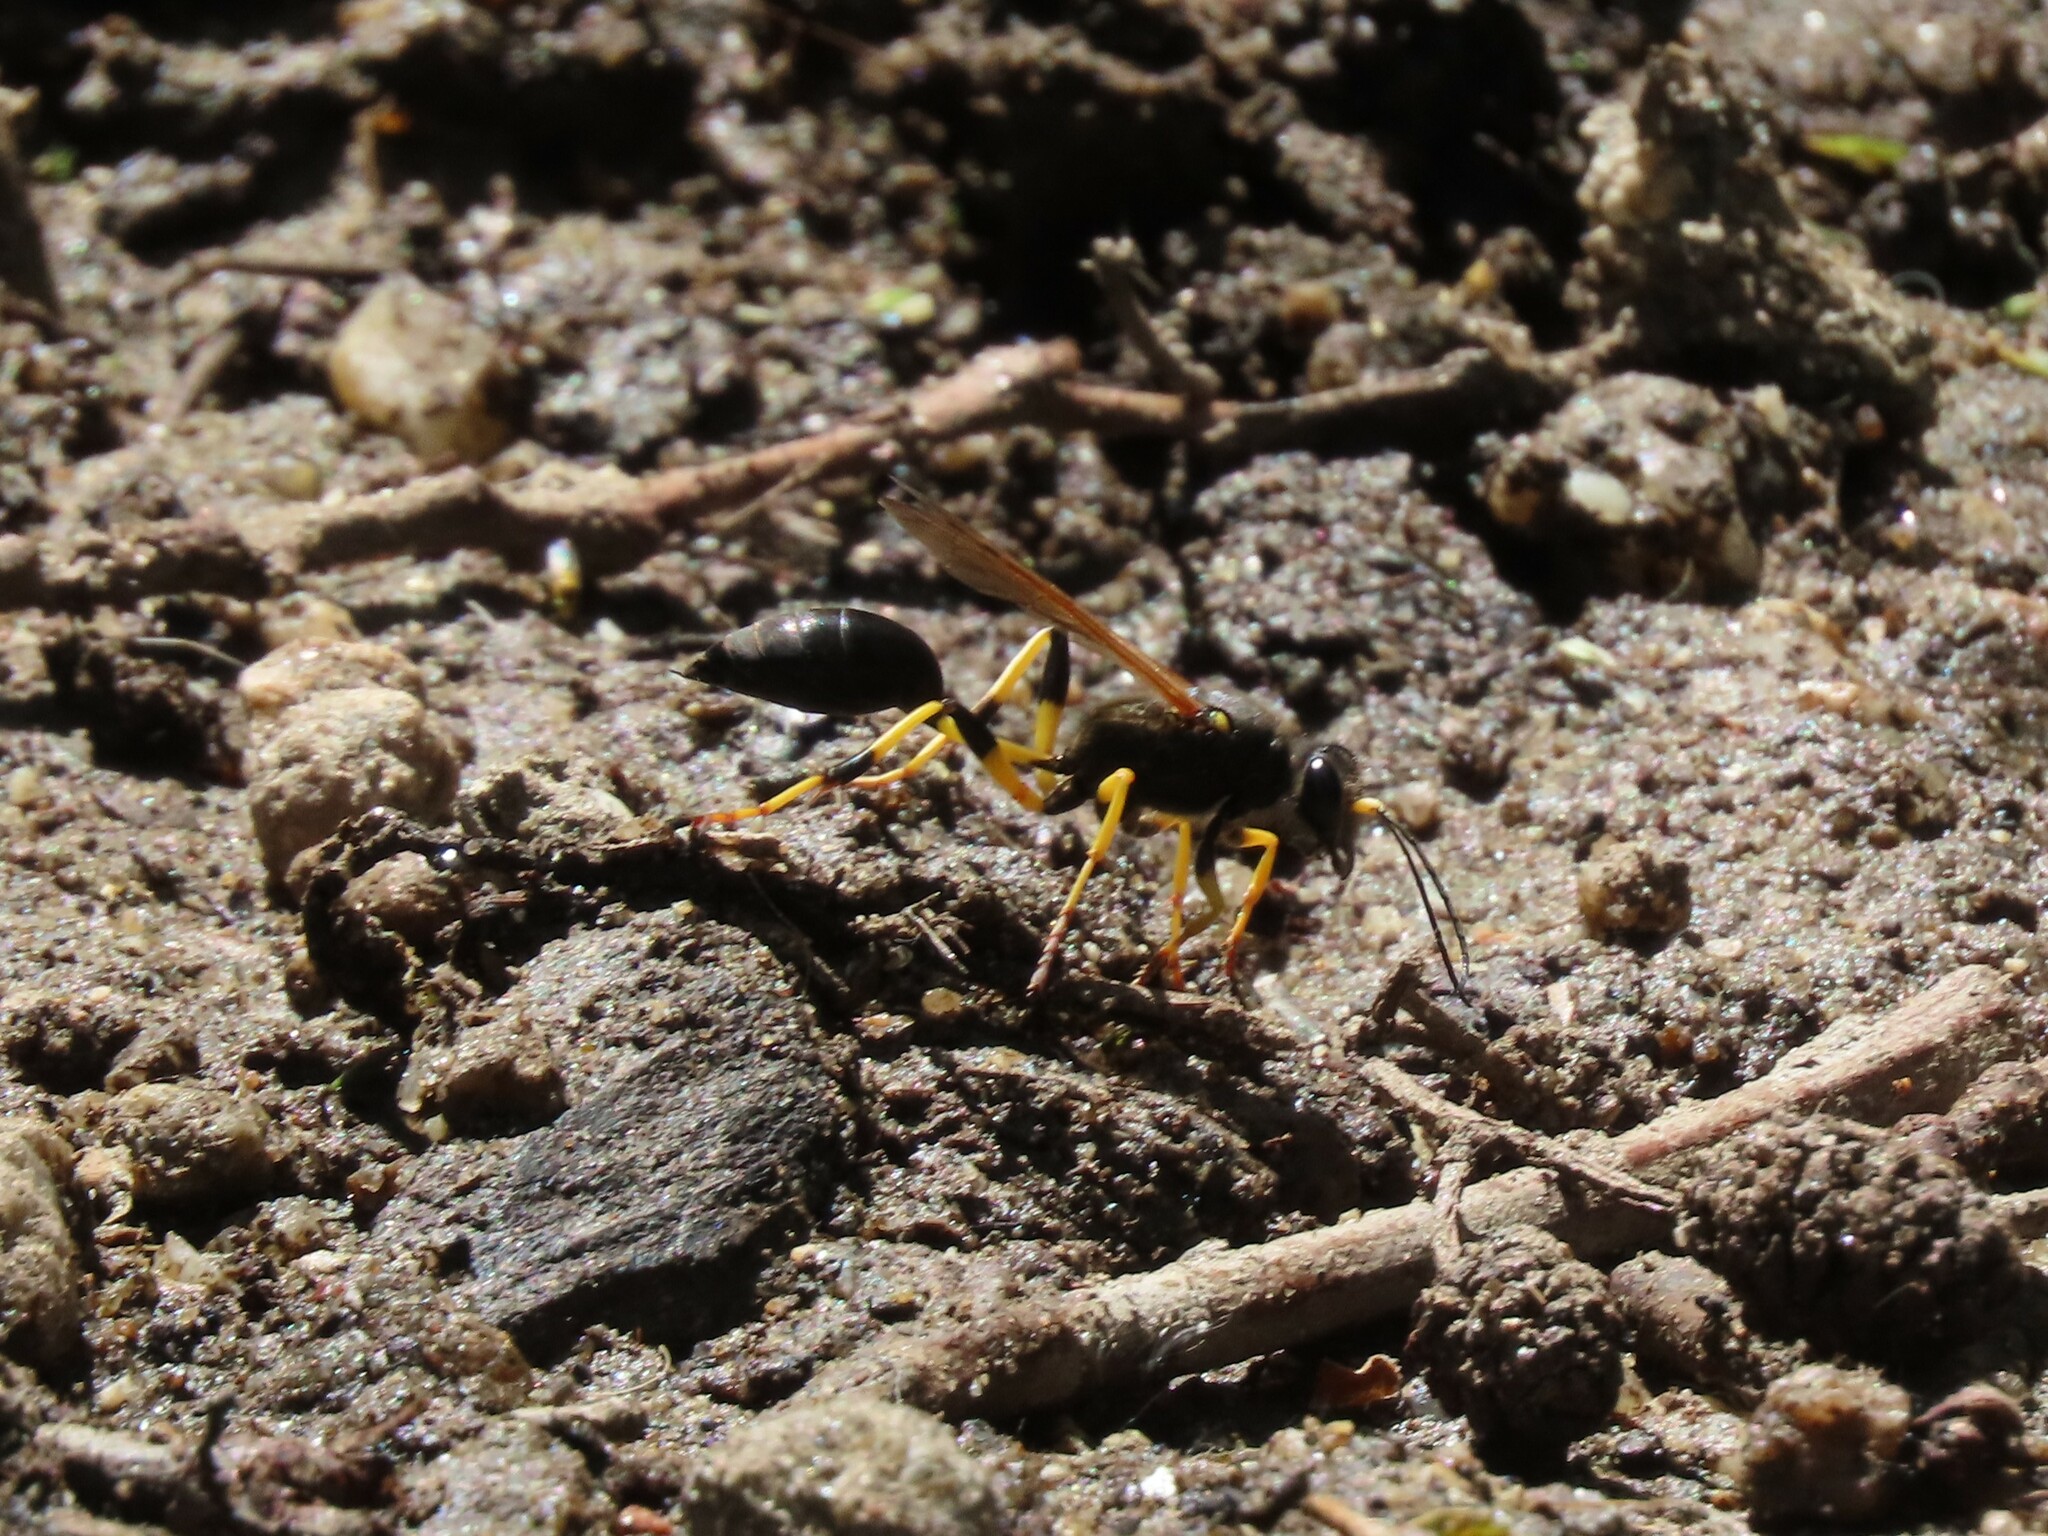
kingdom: Animalia
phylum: Arthropoda
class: Insecta
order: Hymenoptera
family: Sphecidae
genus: Sceliphron
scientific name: Sceliphron destillatorium
